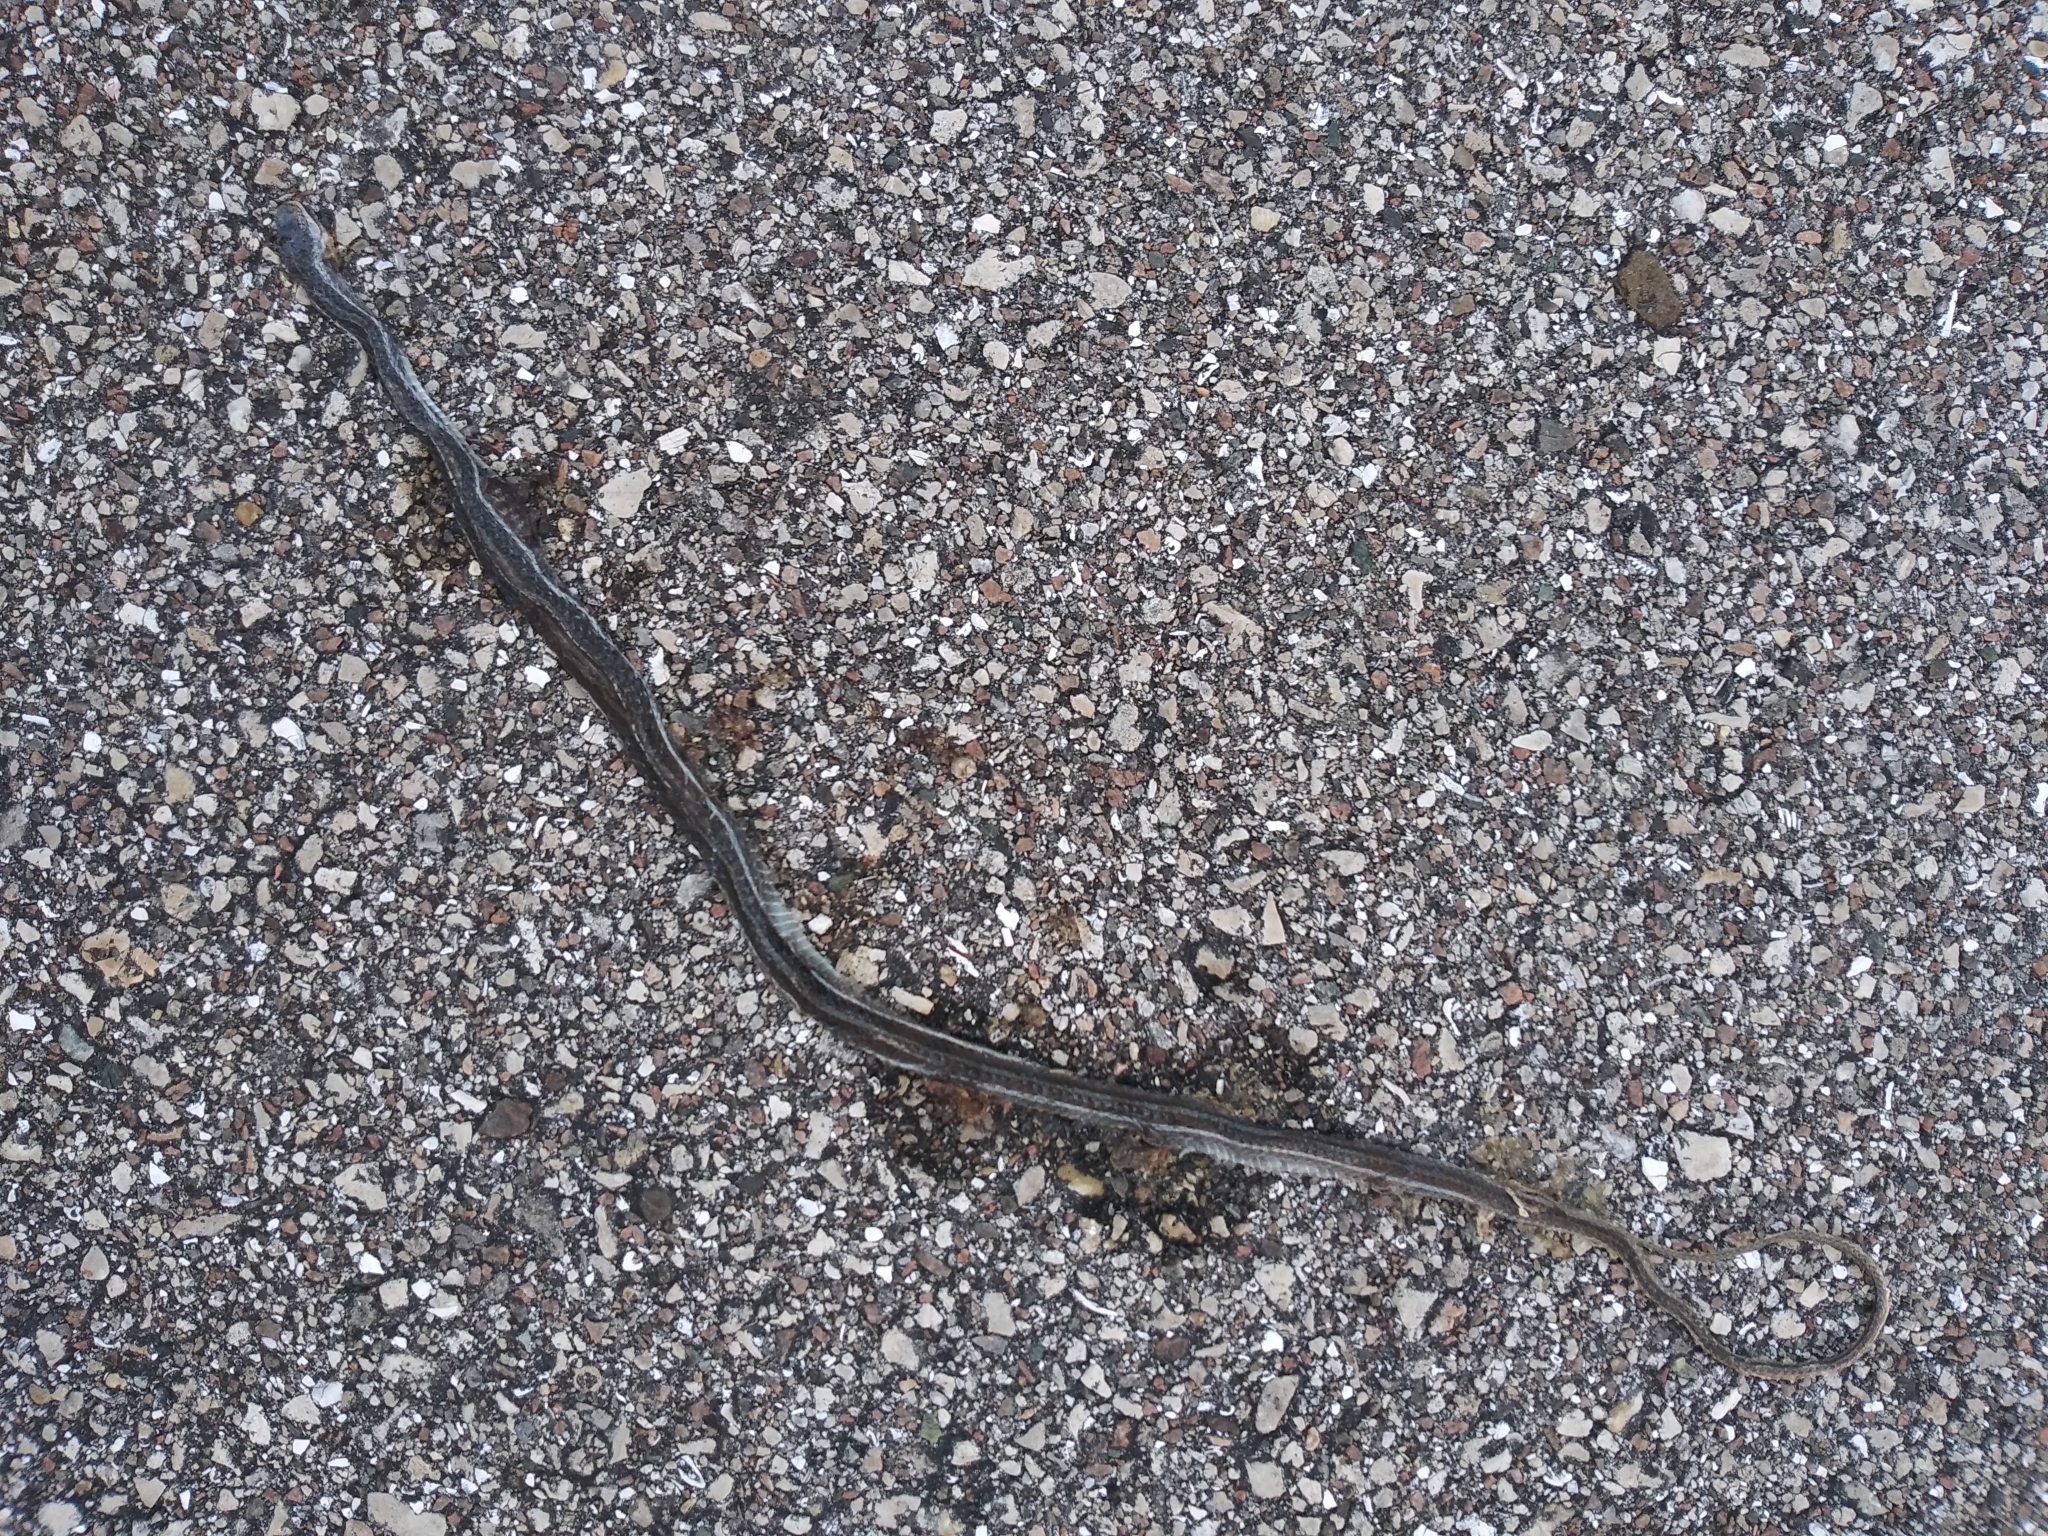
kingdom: Animalia
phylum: Chordata
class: Squamata
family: Colubridae
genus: Thamnophis
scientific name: Thamnophis saurita
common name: Eastern ribbonsnake
